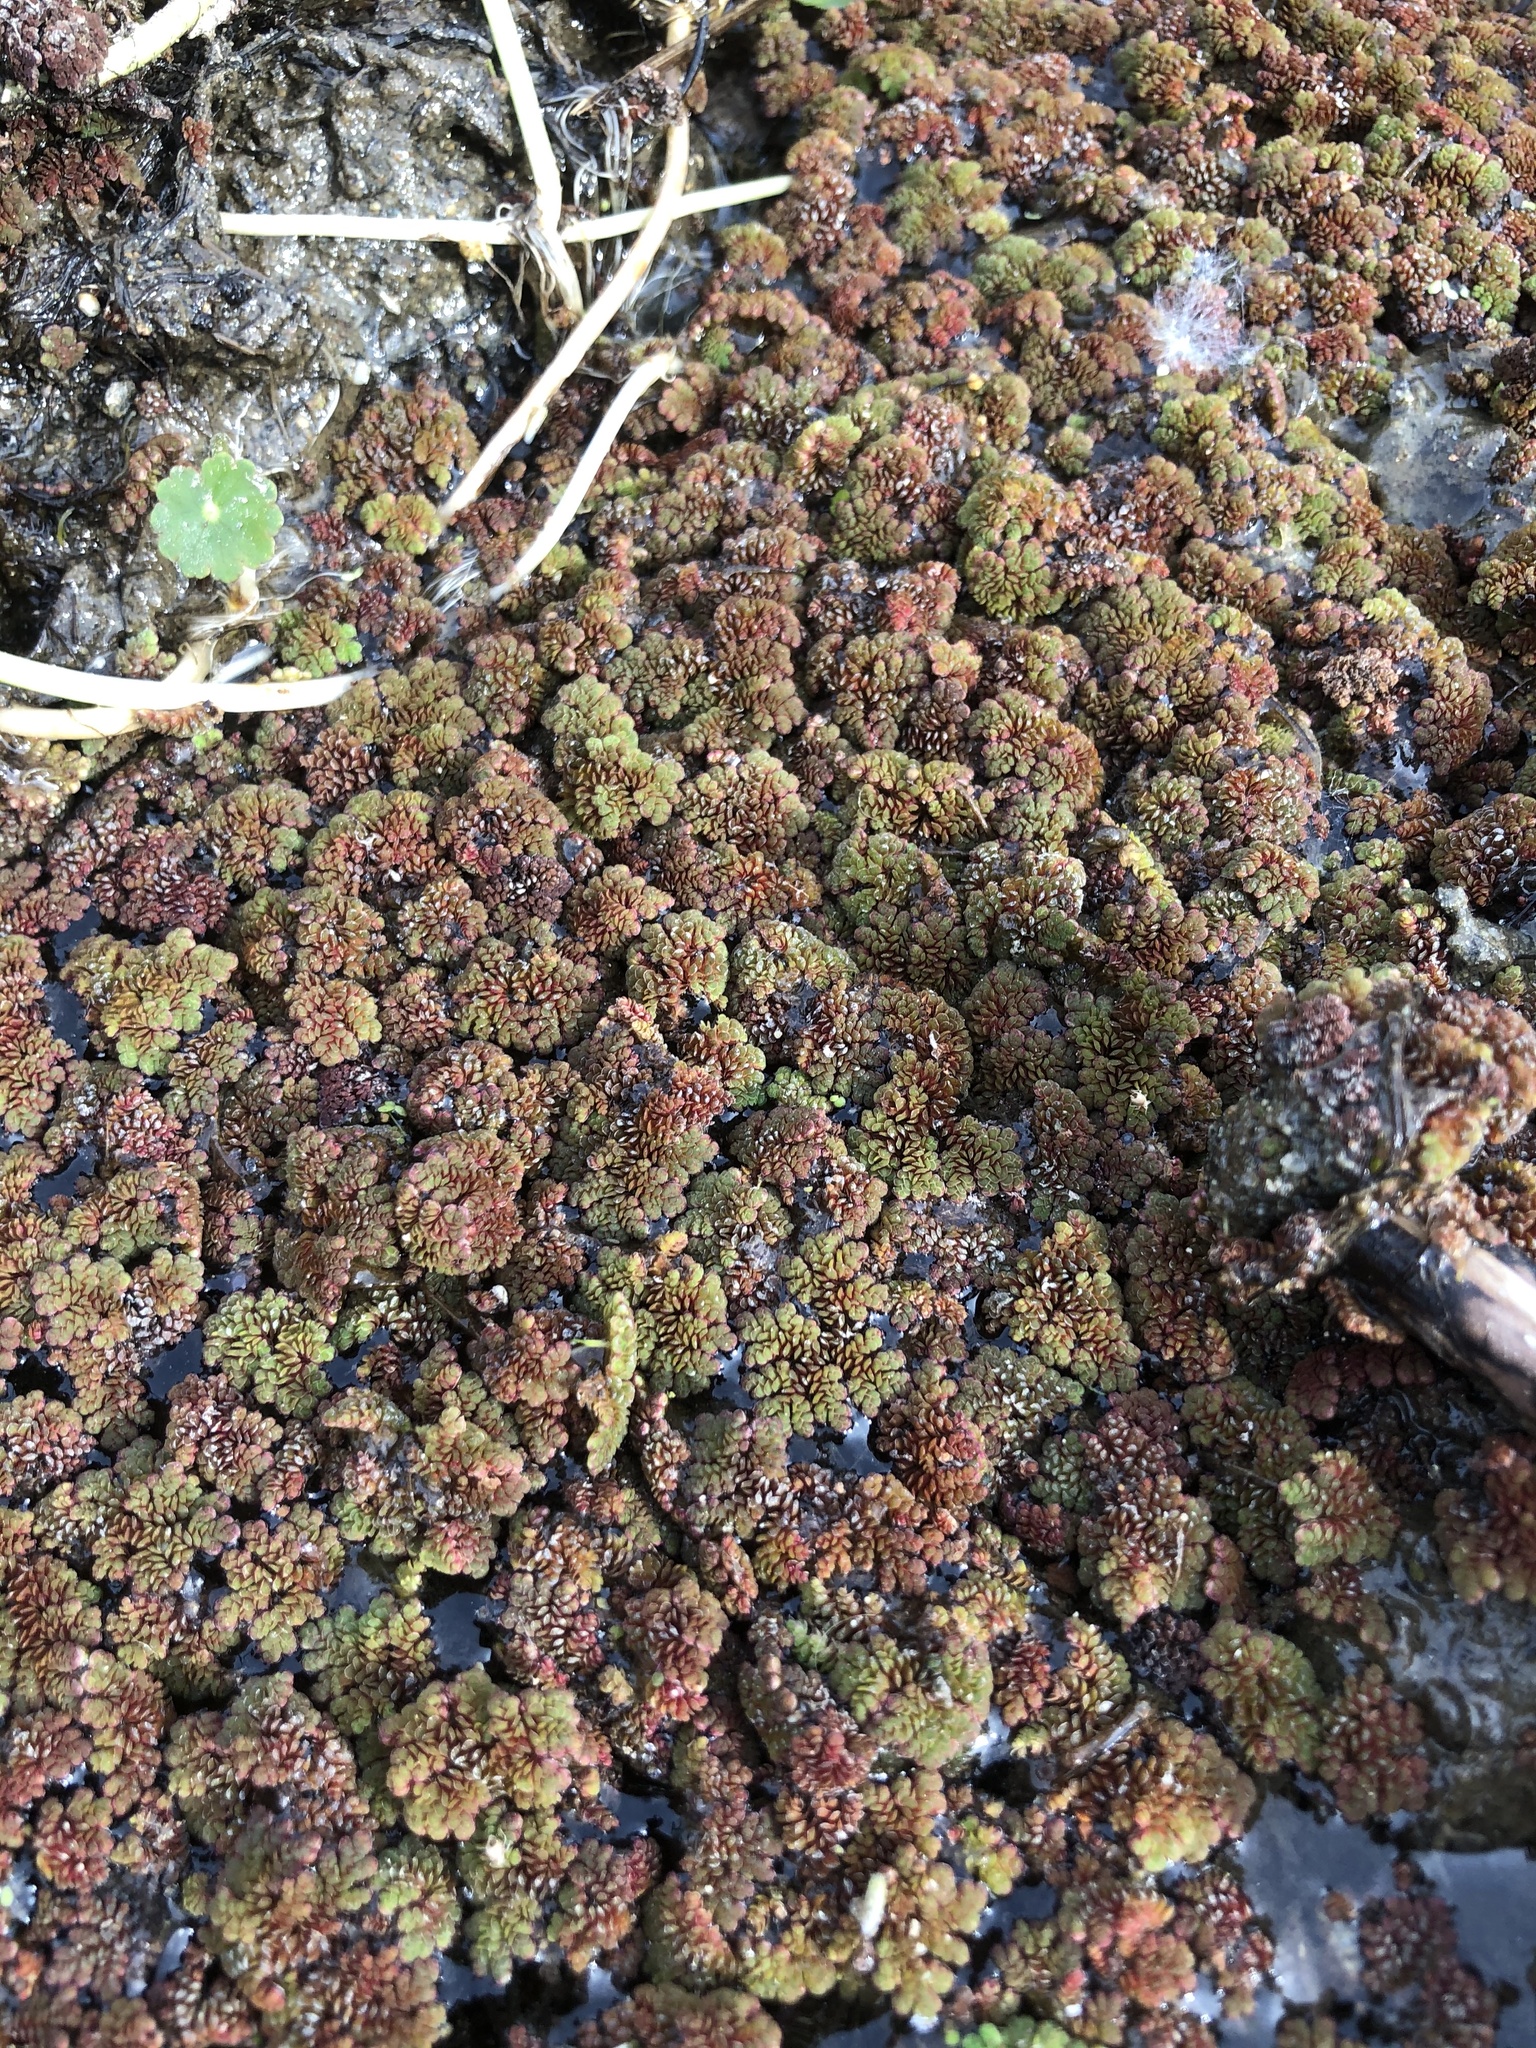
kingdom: Plantae
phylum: Tracheophyta
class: Polypodiopsida
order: Salviniales
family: Salviniaceae
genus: Azolla
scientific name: Azolla filiculoides
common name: Water fern
